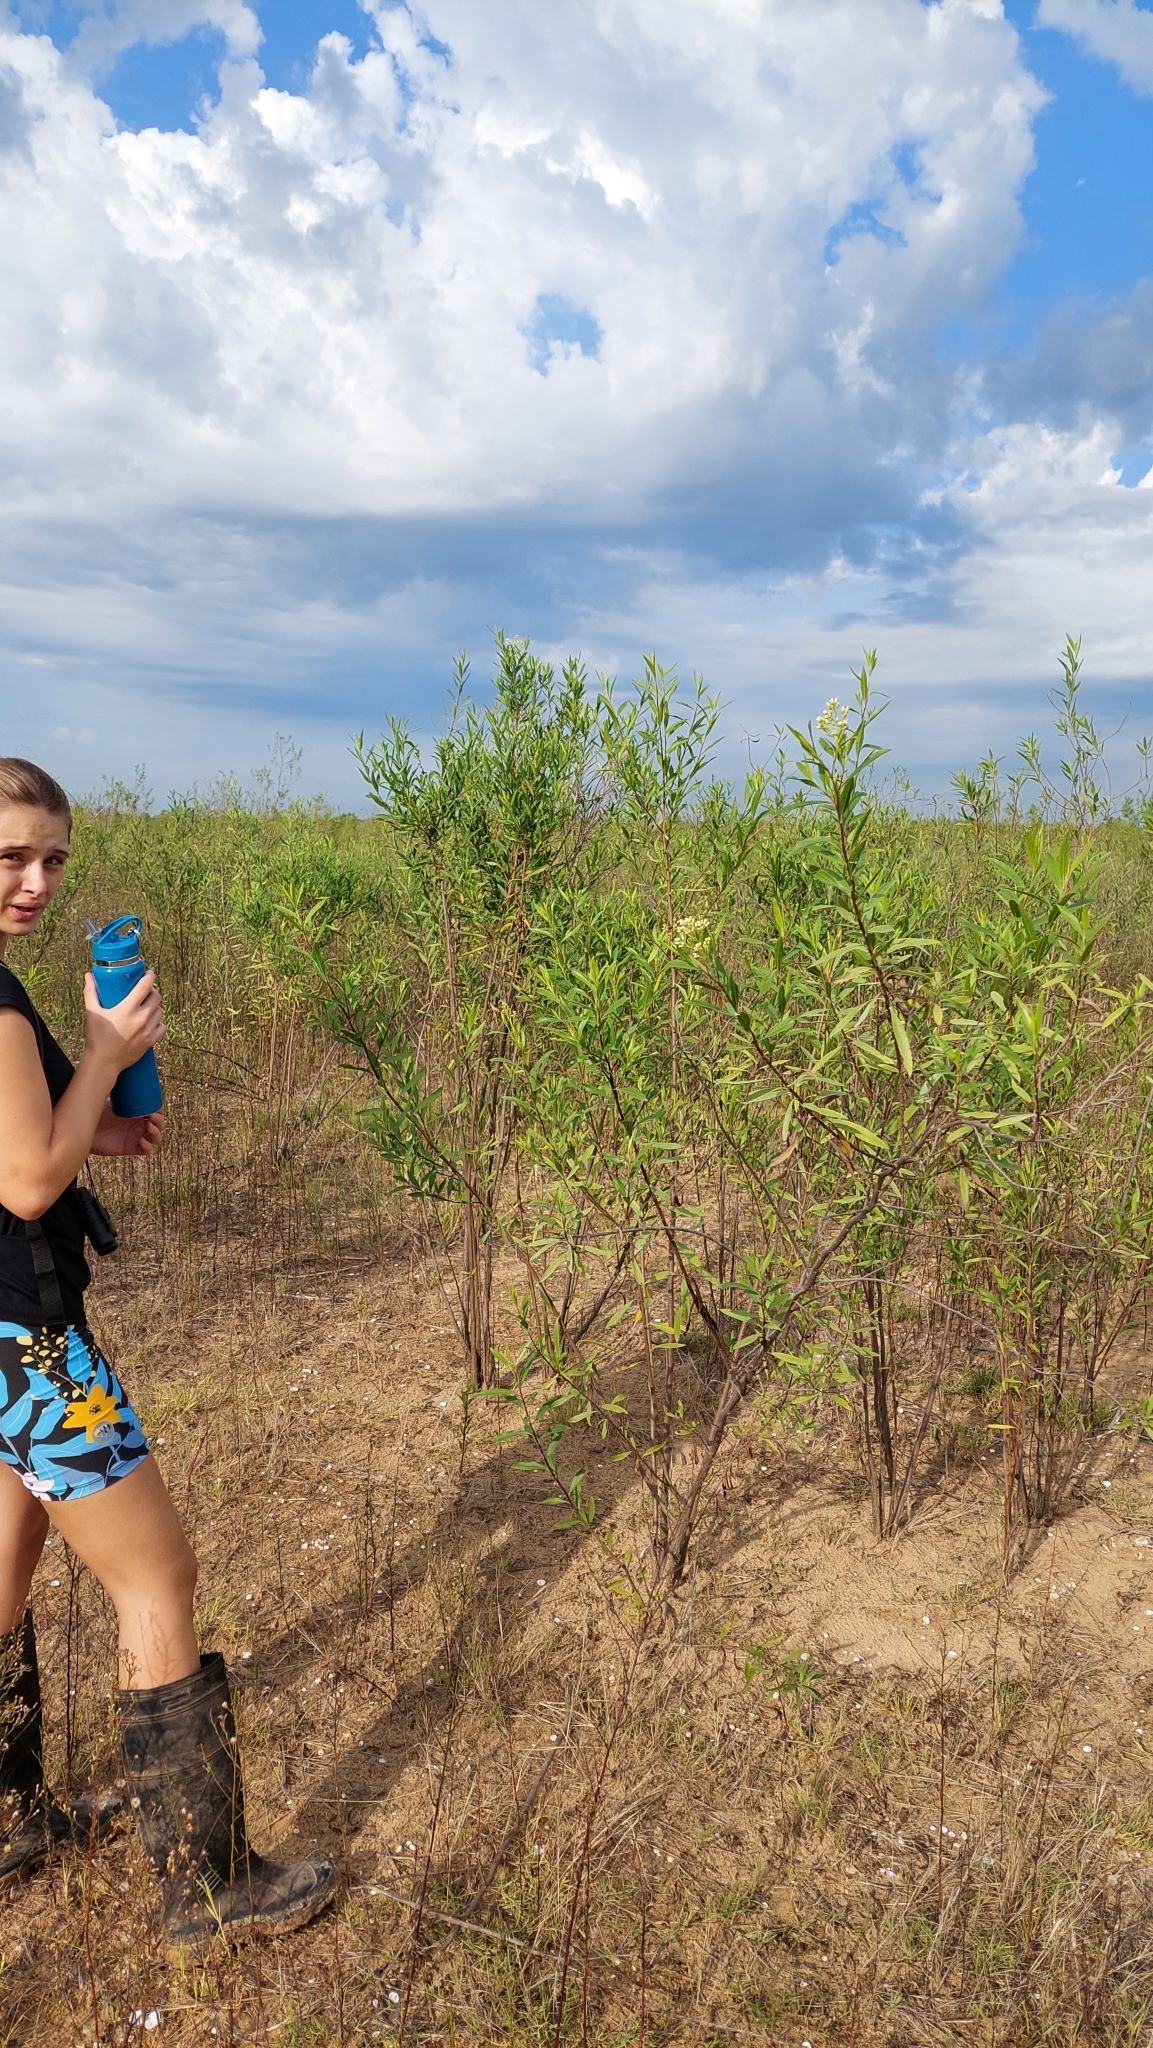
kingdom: Plantae
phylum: Tracheophyta
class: Magnoliopsida
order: Asterales
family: Asteraceae
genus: Baccharis
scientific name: Baccharis salicifolia
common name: Sticky baccharis
